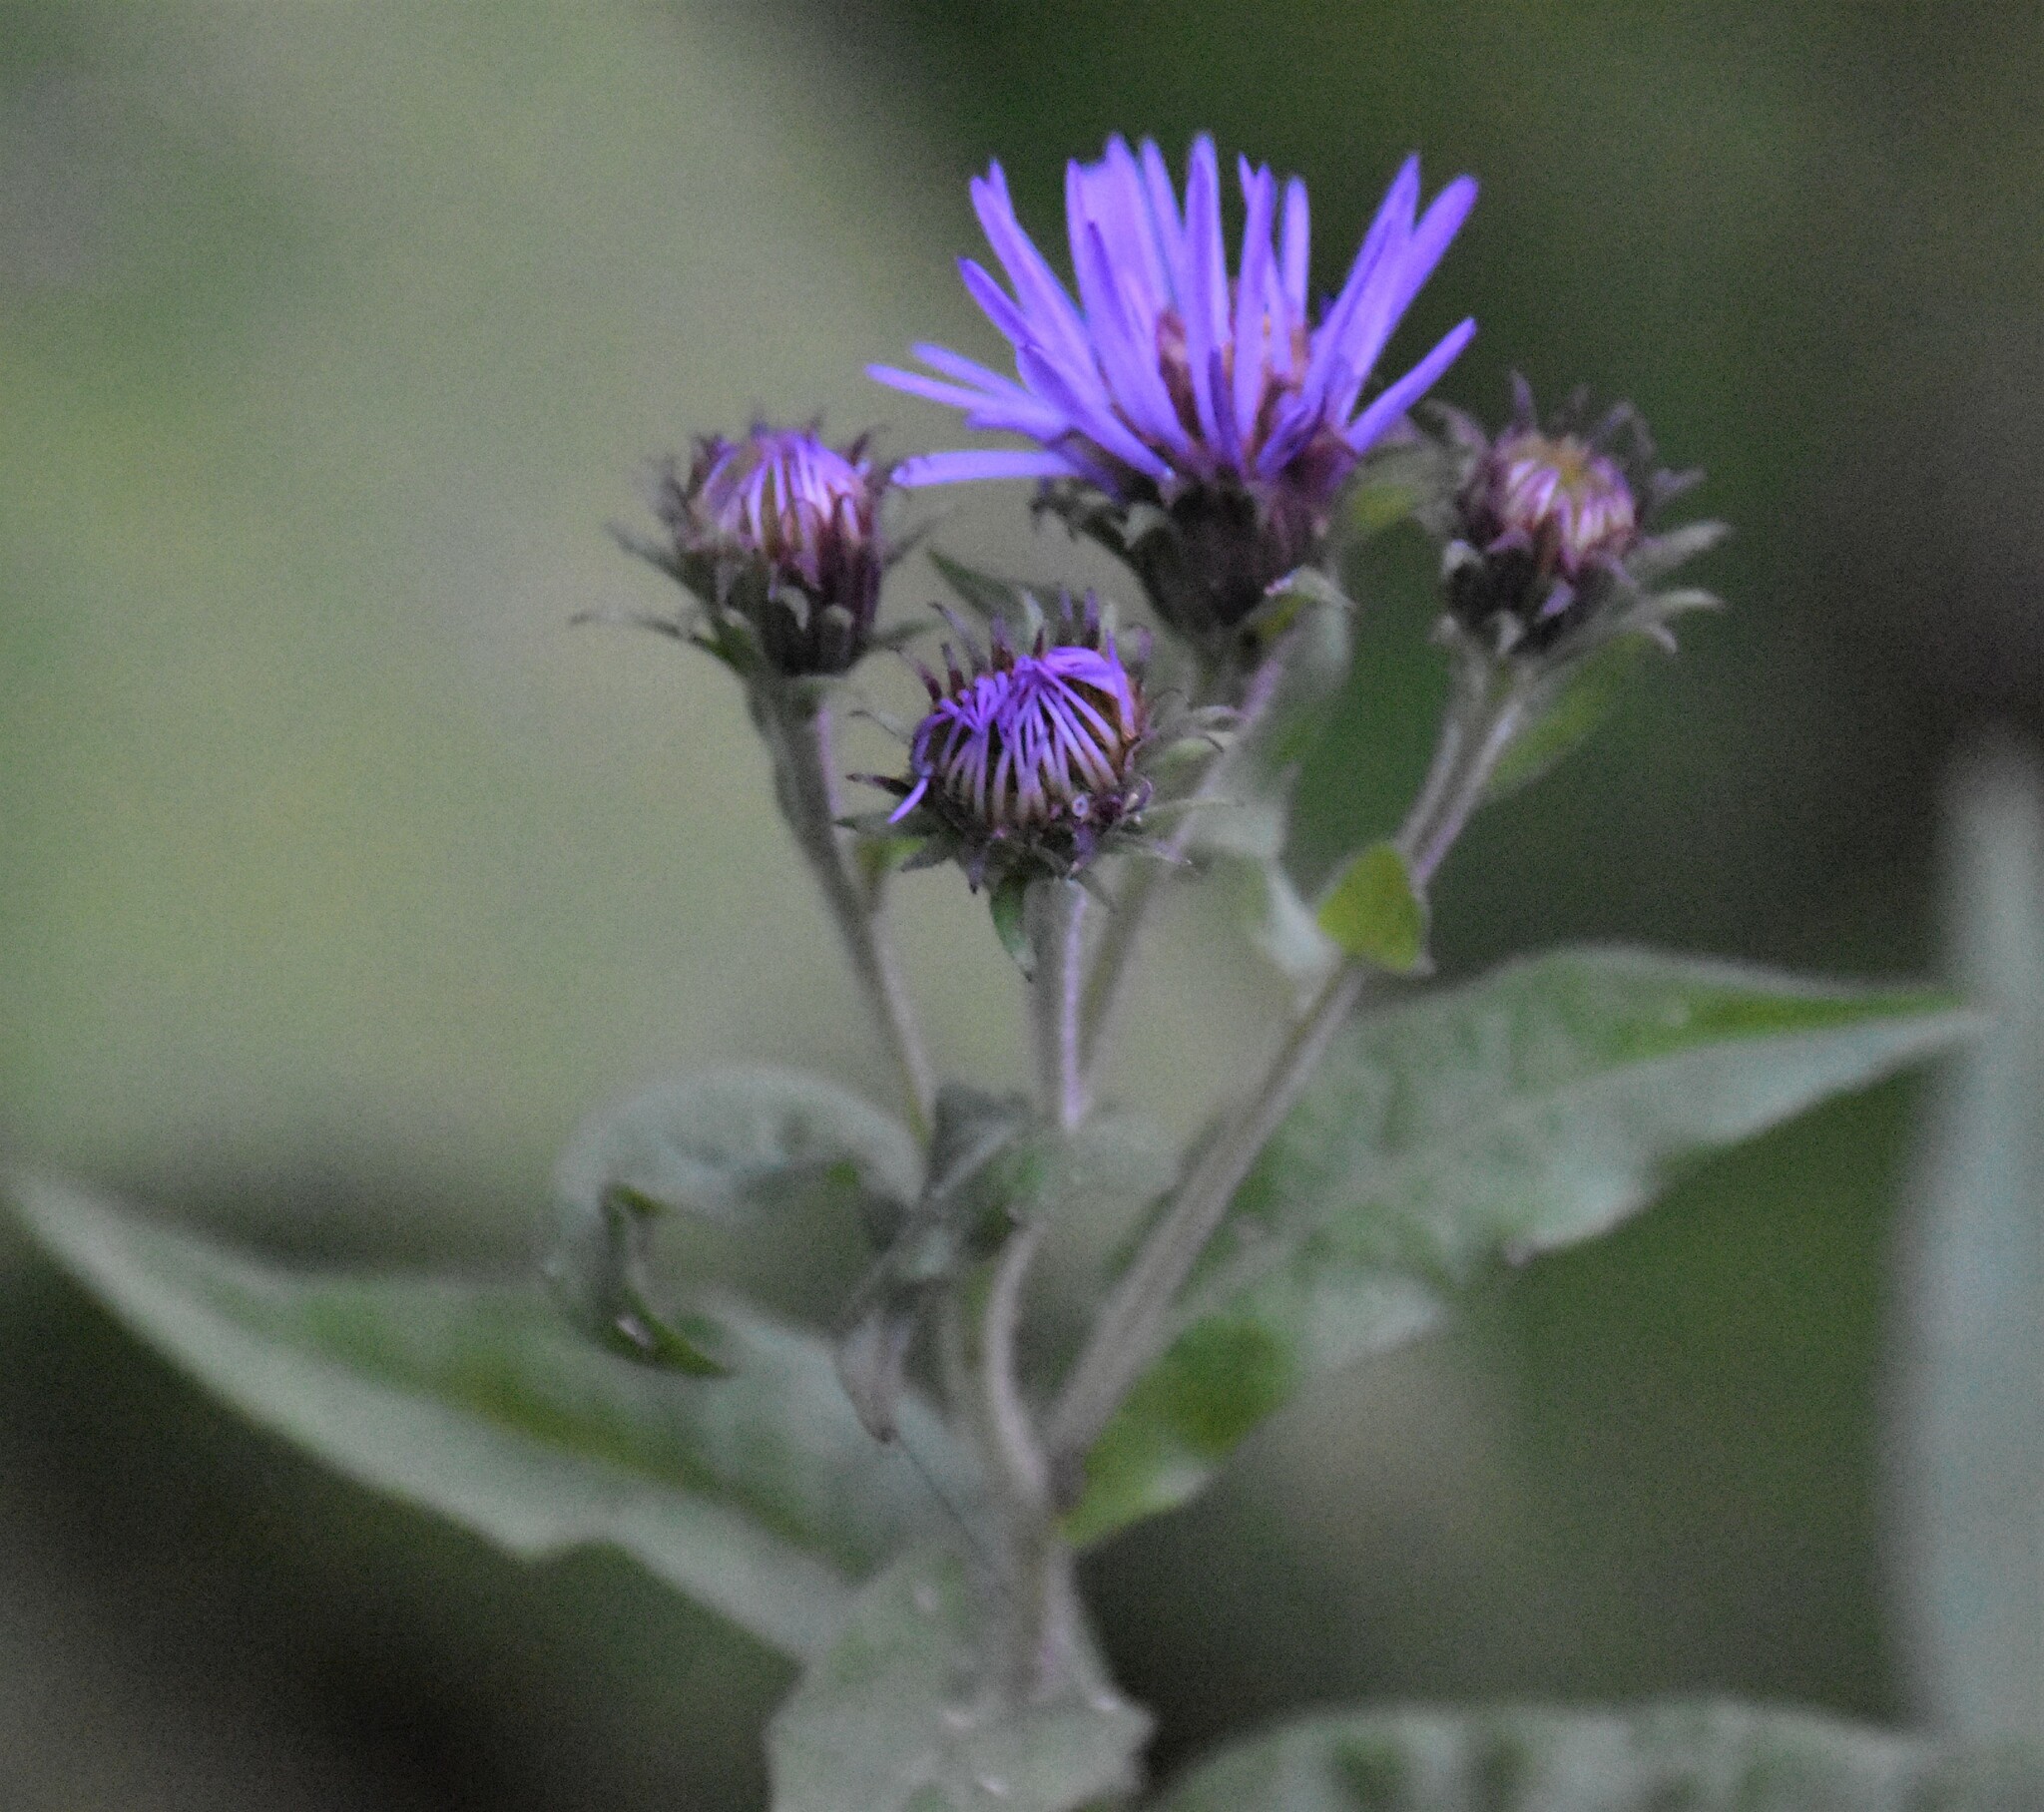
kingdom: Plantae
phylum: Tracheophyta
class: Magnoliopsida
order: Asterales
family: Asteraceae
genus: Canadanthus
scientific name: Canadanthus modestus
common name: Great northern aster
